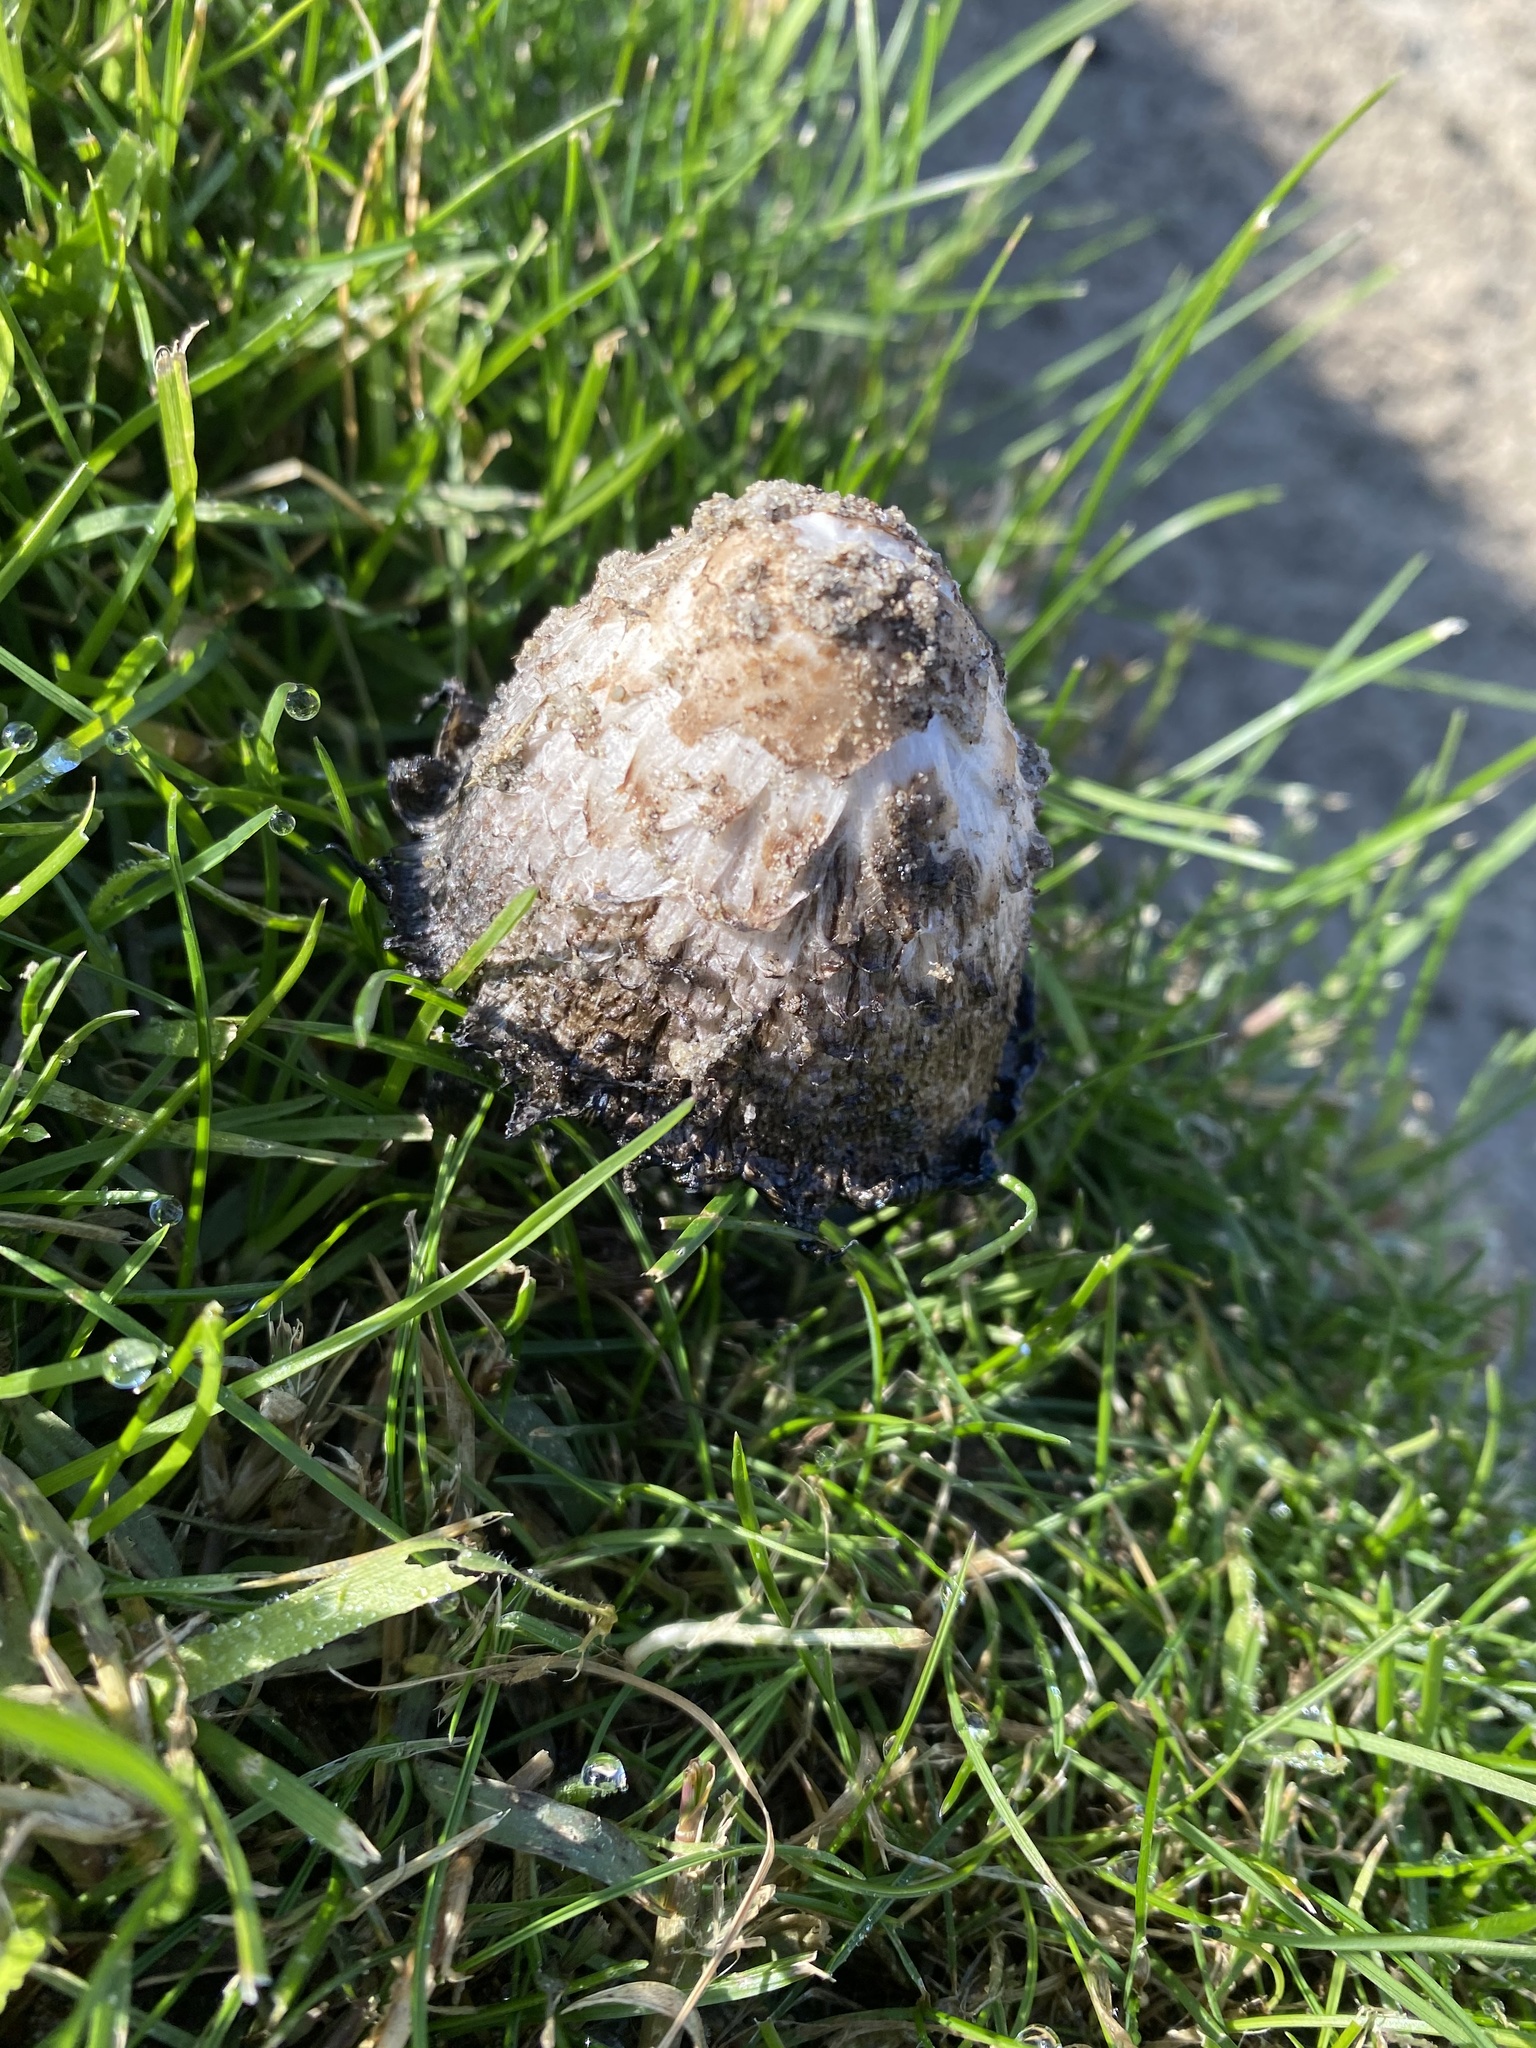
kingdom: Fungi
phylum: Basidiomycota
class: Agaricomycetes
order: Agaricales
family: Agaricaceae
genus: Coprinus
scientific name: Coprinus comatus
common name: Lawyer's wig
